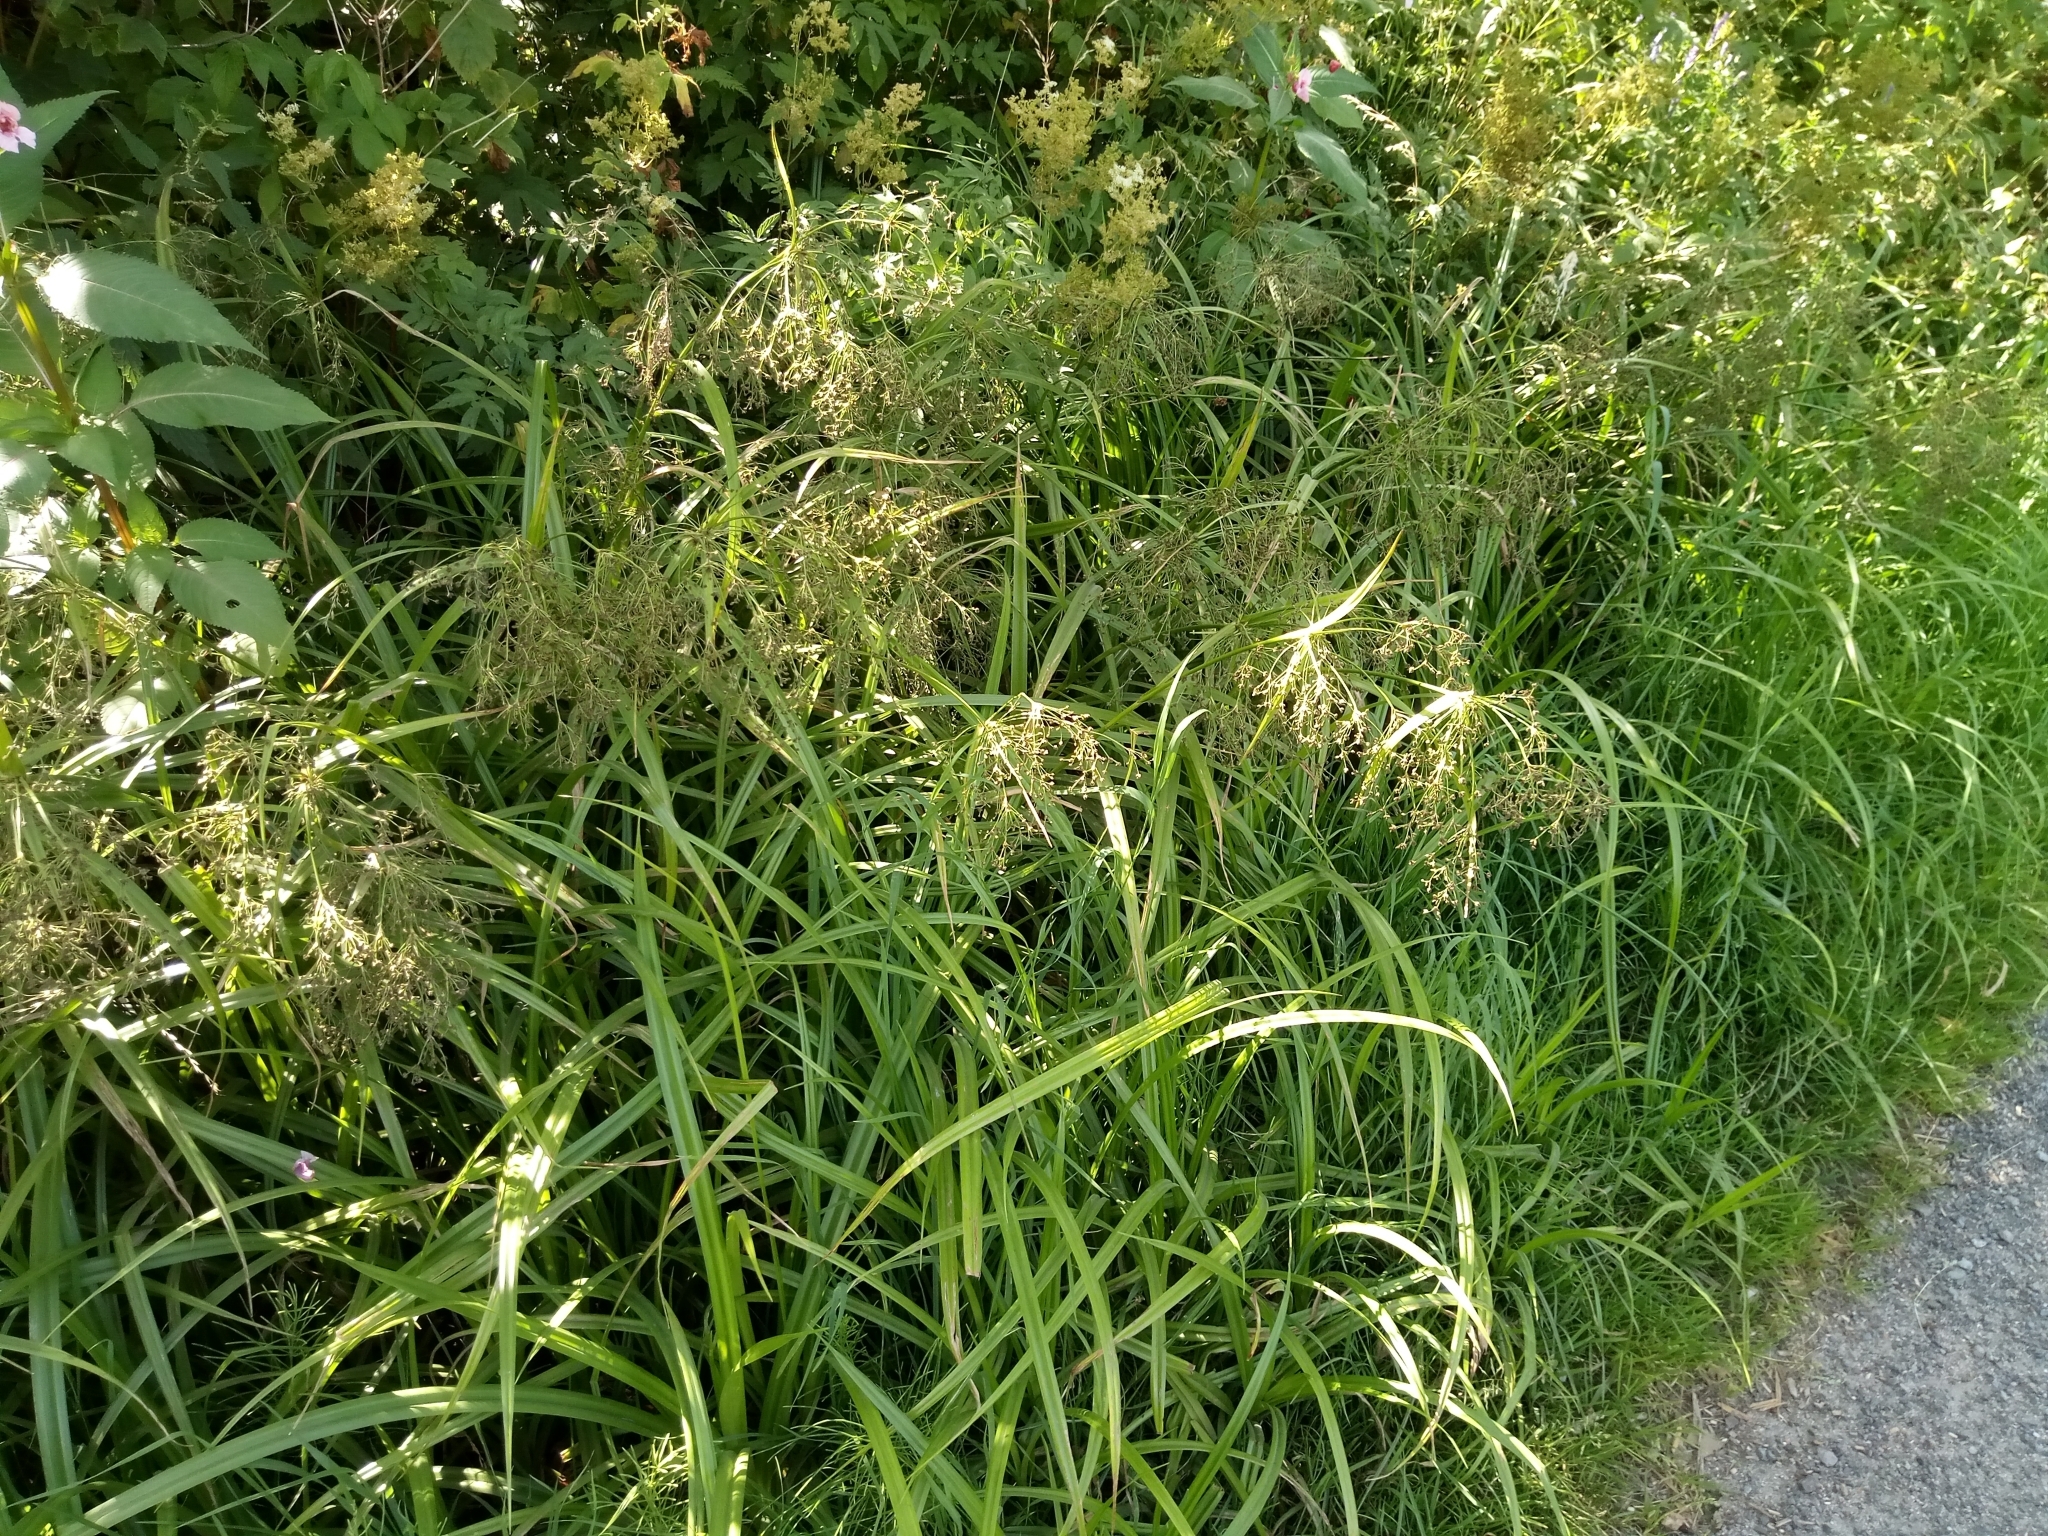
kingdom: Plantae
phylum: Tracheophyta
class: Liliopsida
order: Poales
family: Cyperaceae
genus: Scirpus
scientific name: Scirpus sylvaticus
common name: Wood club-rush
